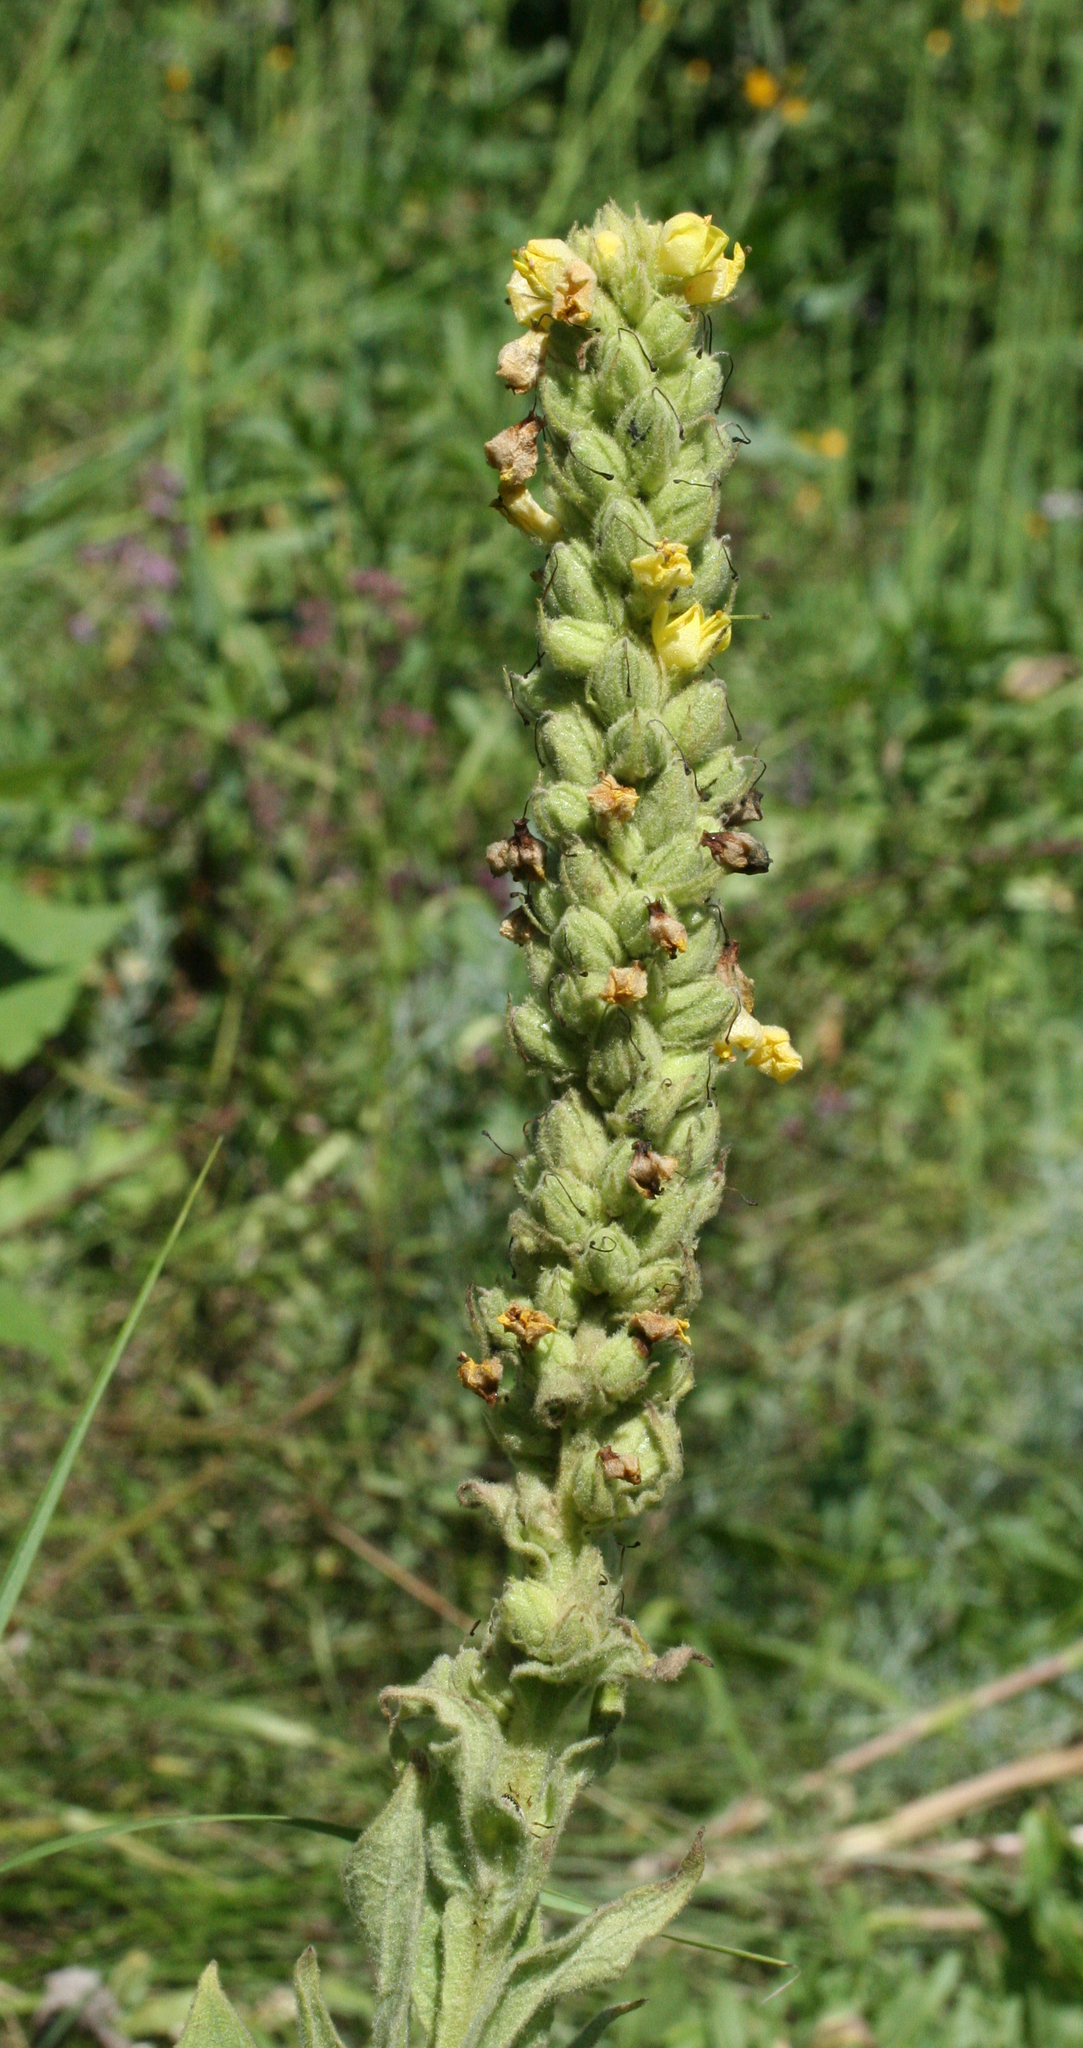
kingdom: Plantae
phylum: Tracheophyta
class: Magnoliopsida
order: Lamiales
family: Scrophulariaceae
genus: Verbascum
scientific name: Verbascum thapsus
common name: Common mullein
